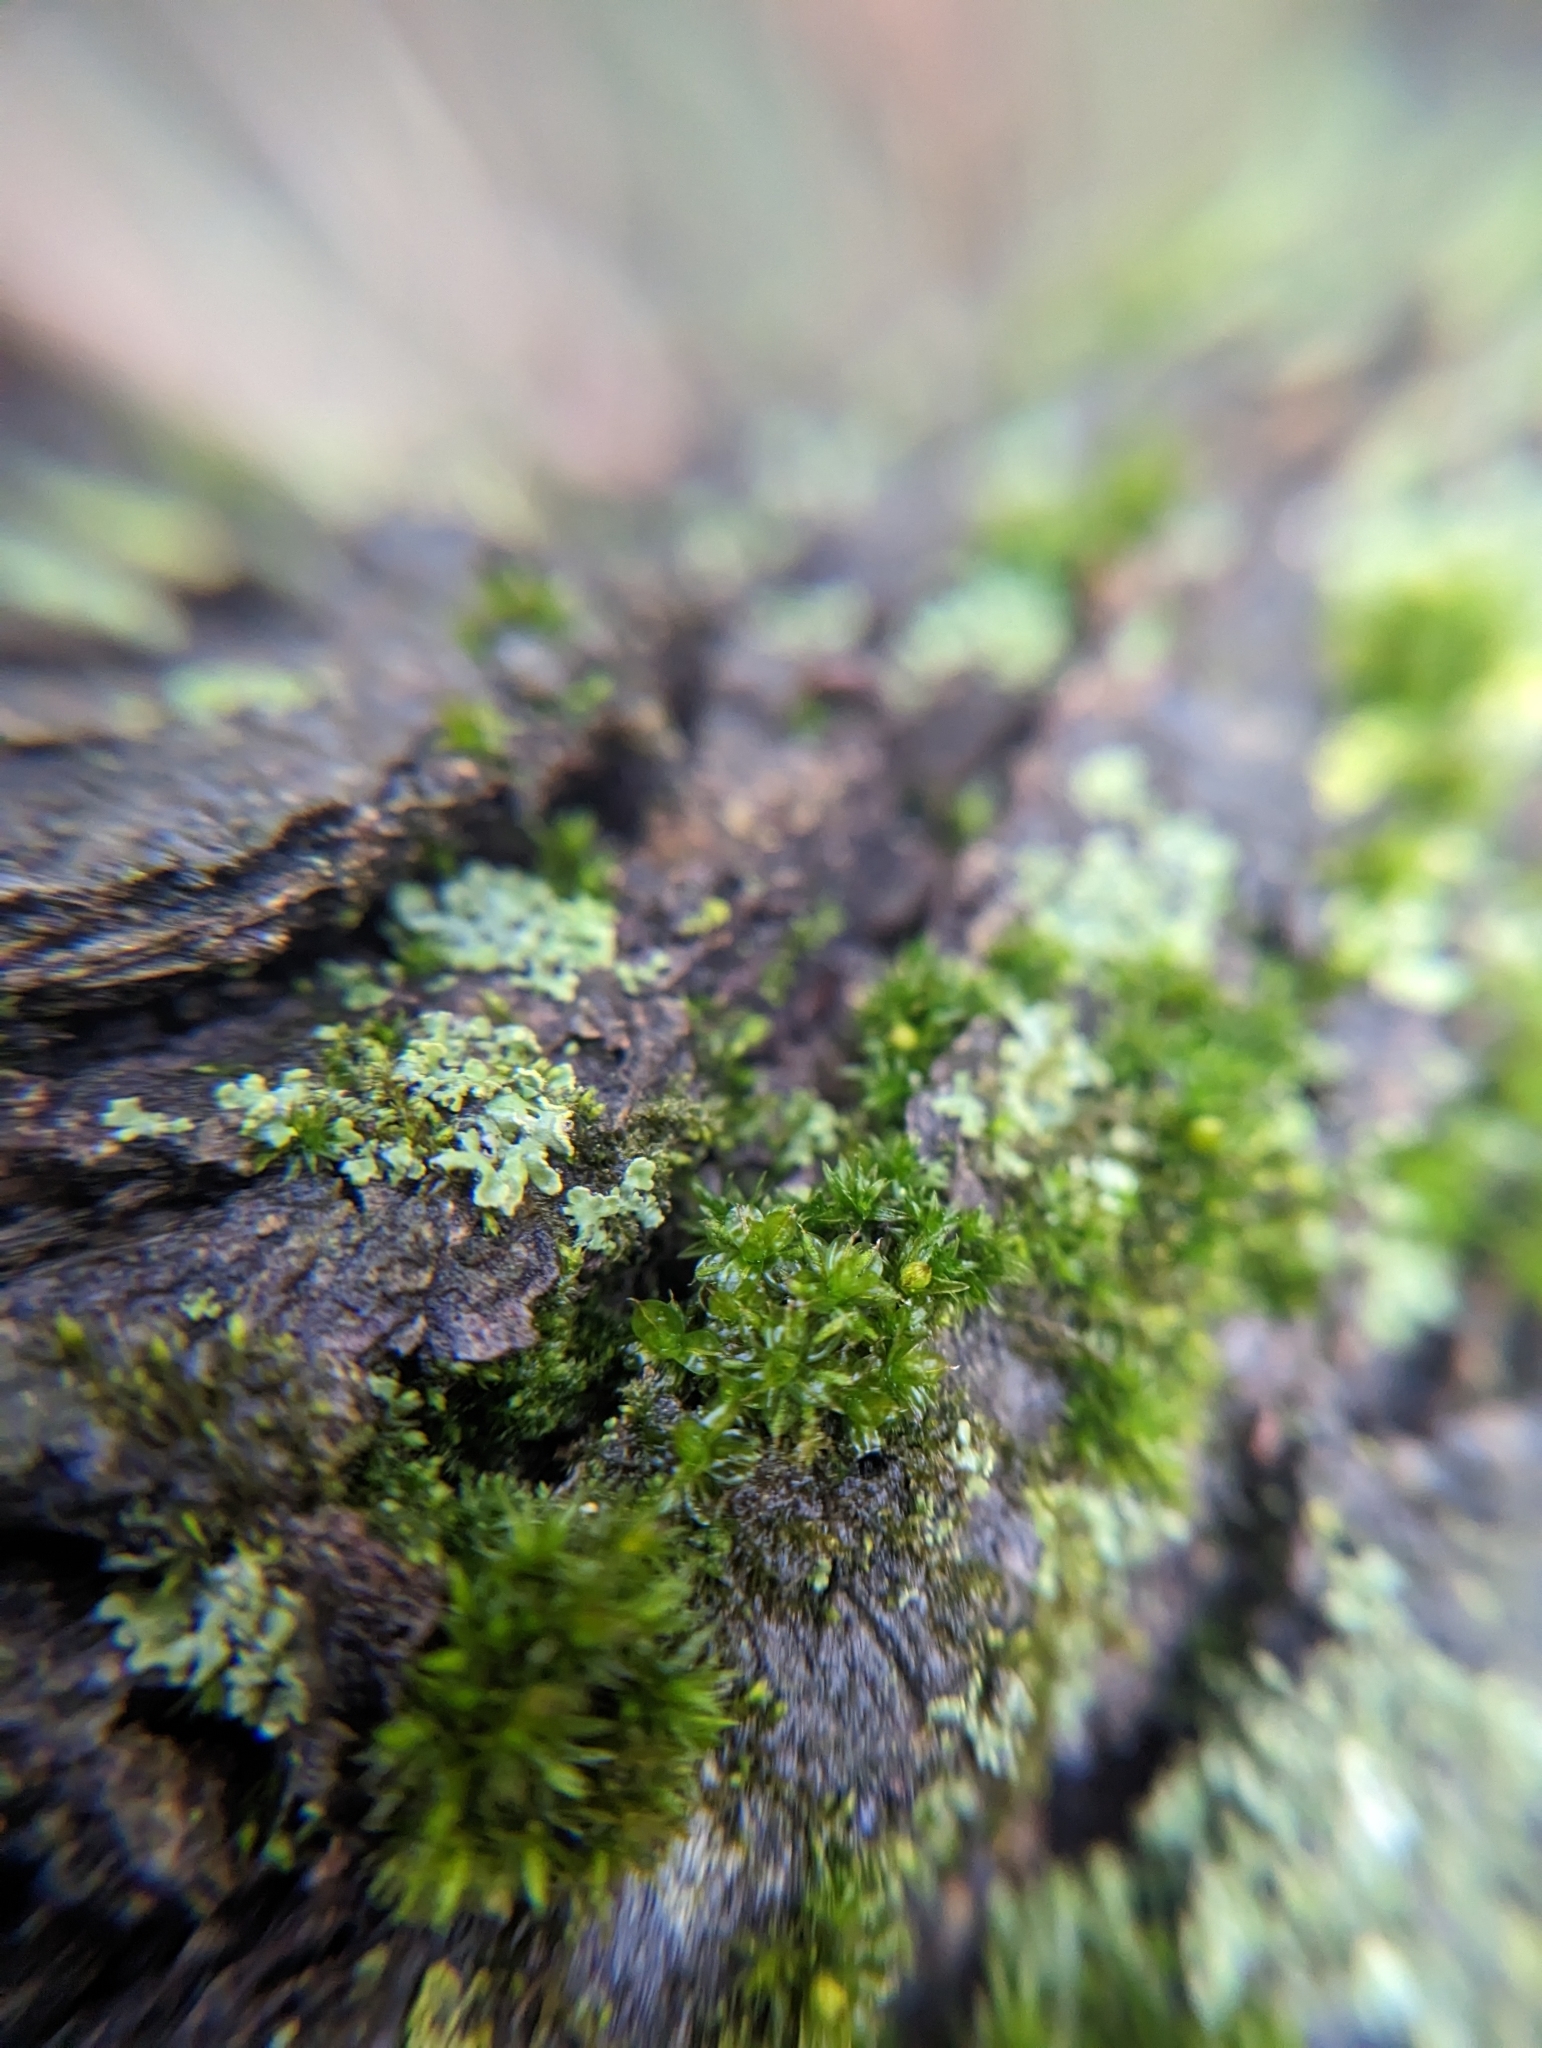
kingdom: Plantae
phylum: Bryophyta
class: Bryopsida
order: Pottiales
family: Pottiaceae
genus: Syntrichia
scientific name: Syntrichia papillosa
